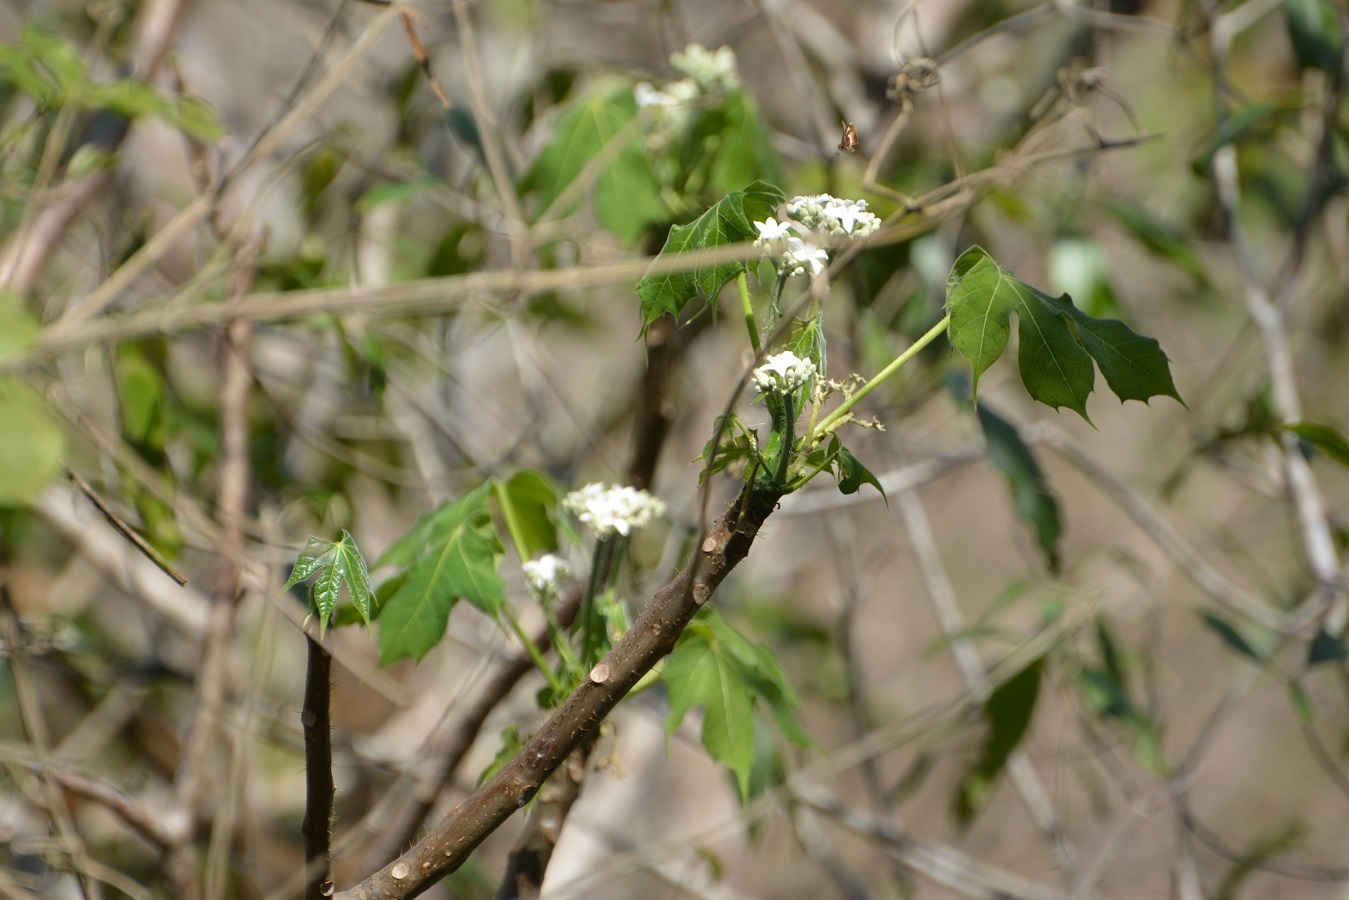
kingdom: Plantae
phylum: Tracheophyta
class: Magnoliopsida
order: Malpighiales
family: Euphorbiaceae
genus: Cnidoscolus
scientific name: Cnidoscolus aconitifolius
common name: Cabbage-star
